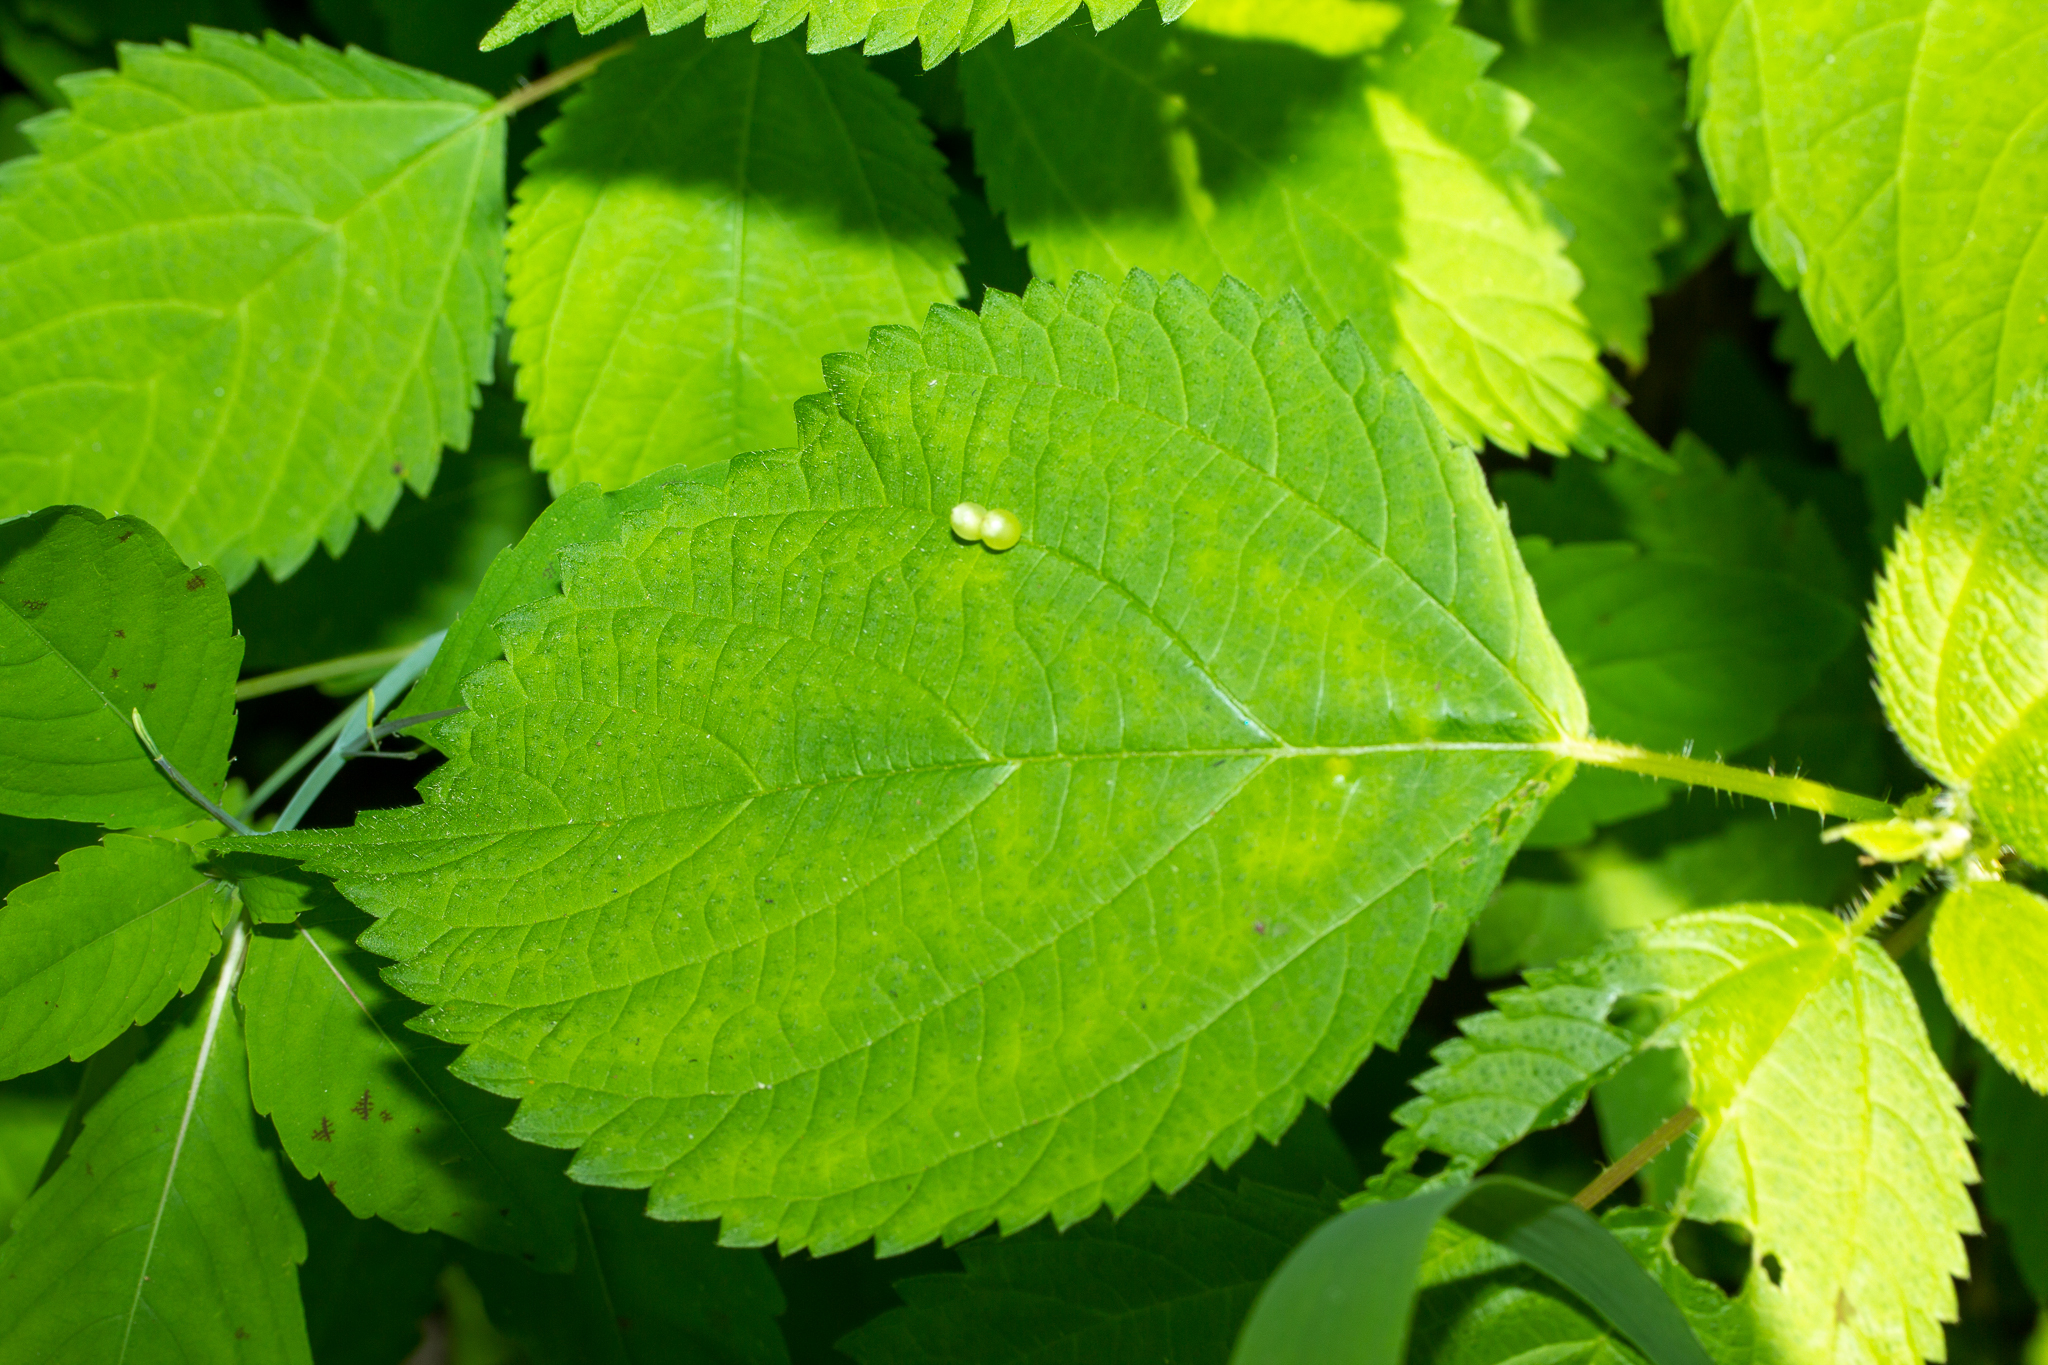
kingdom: Plantae
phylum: Tracheophyta
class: Magnoliopsida
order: Rosales
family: Urticaceae
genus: Laportea
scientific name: Laportea canadensis
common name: Canada nettle
